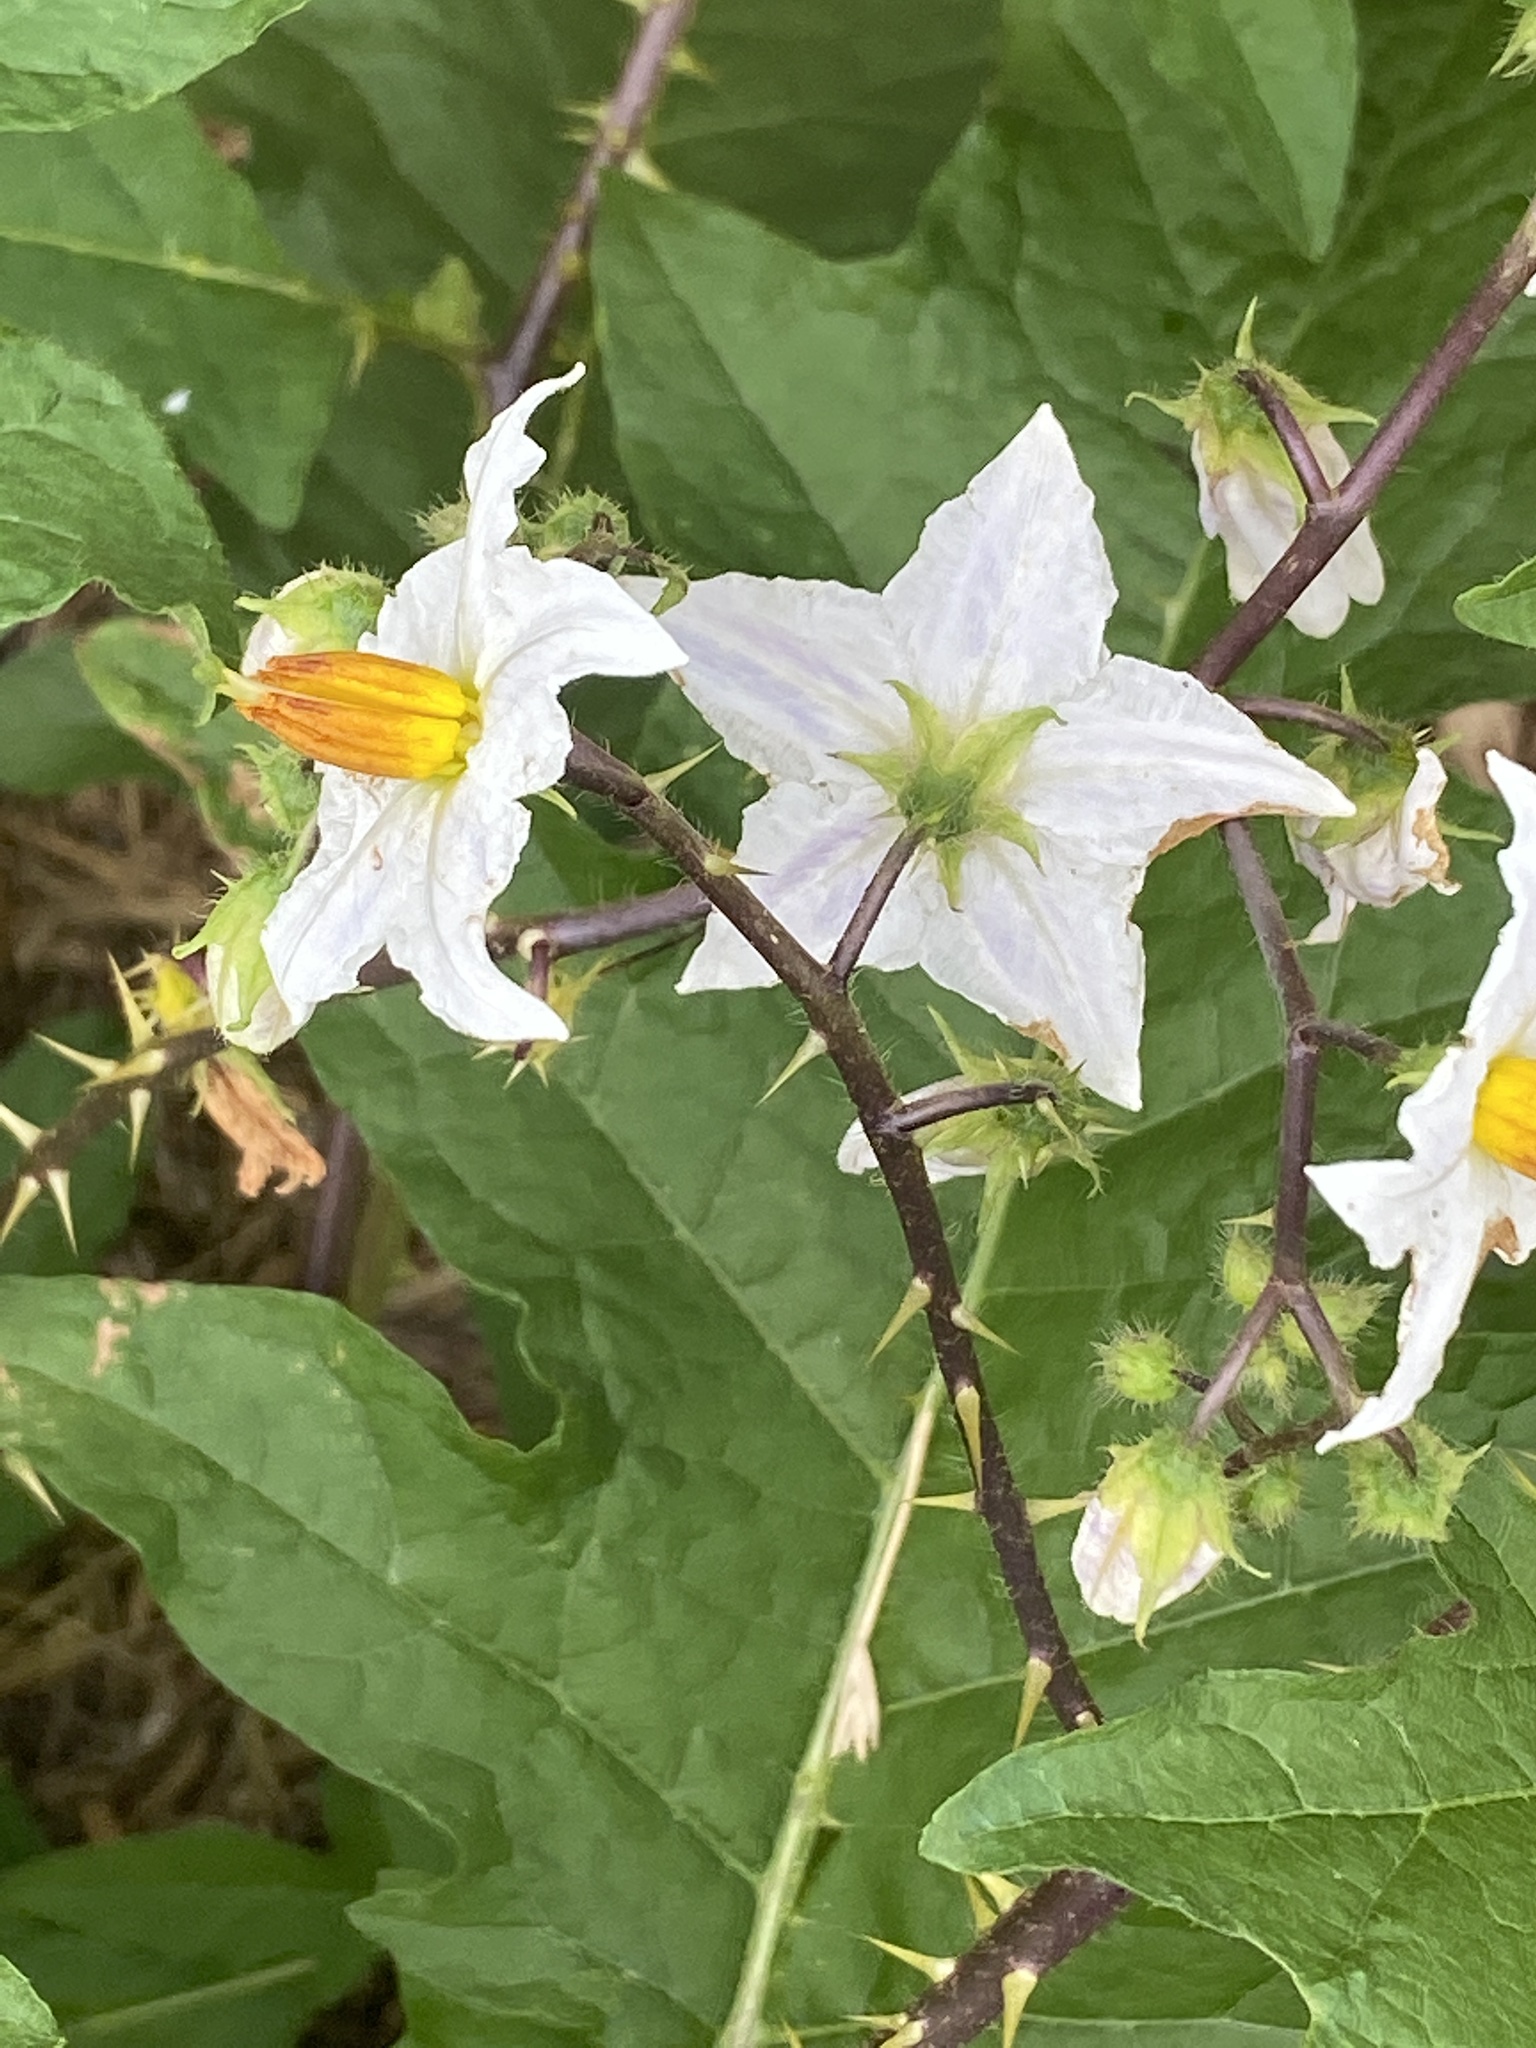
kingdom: Plantae
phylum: Tracheophyta
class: Magnoliopsida
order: Solanales
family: Solanaceae
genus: Solanum
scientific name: Solanum carolinense
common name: Horse-nettle
